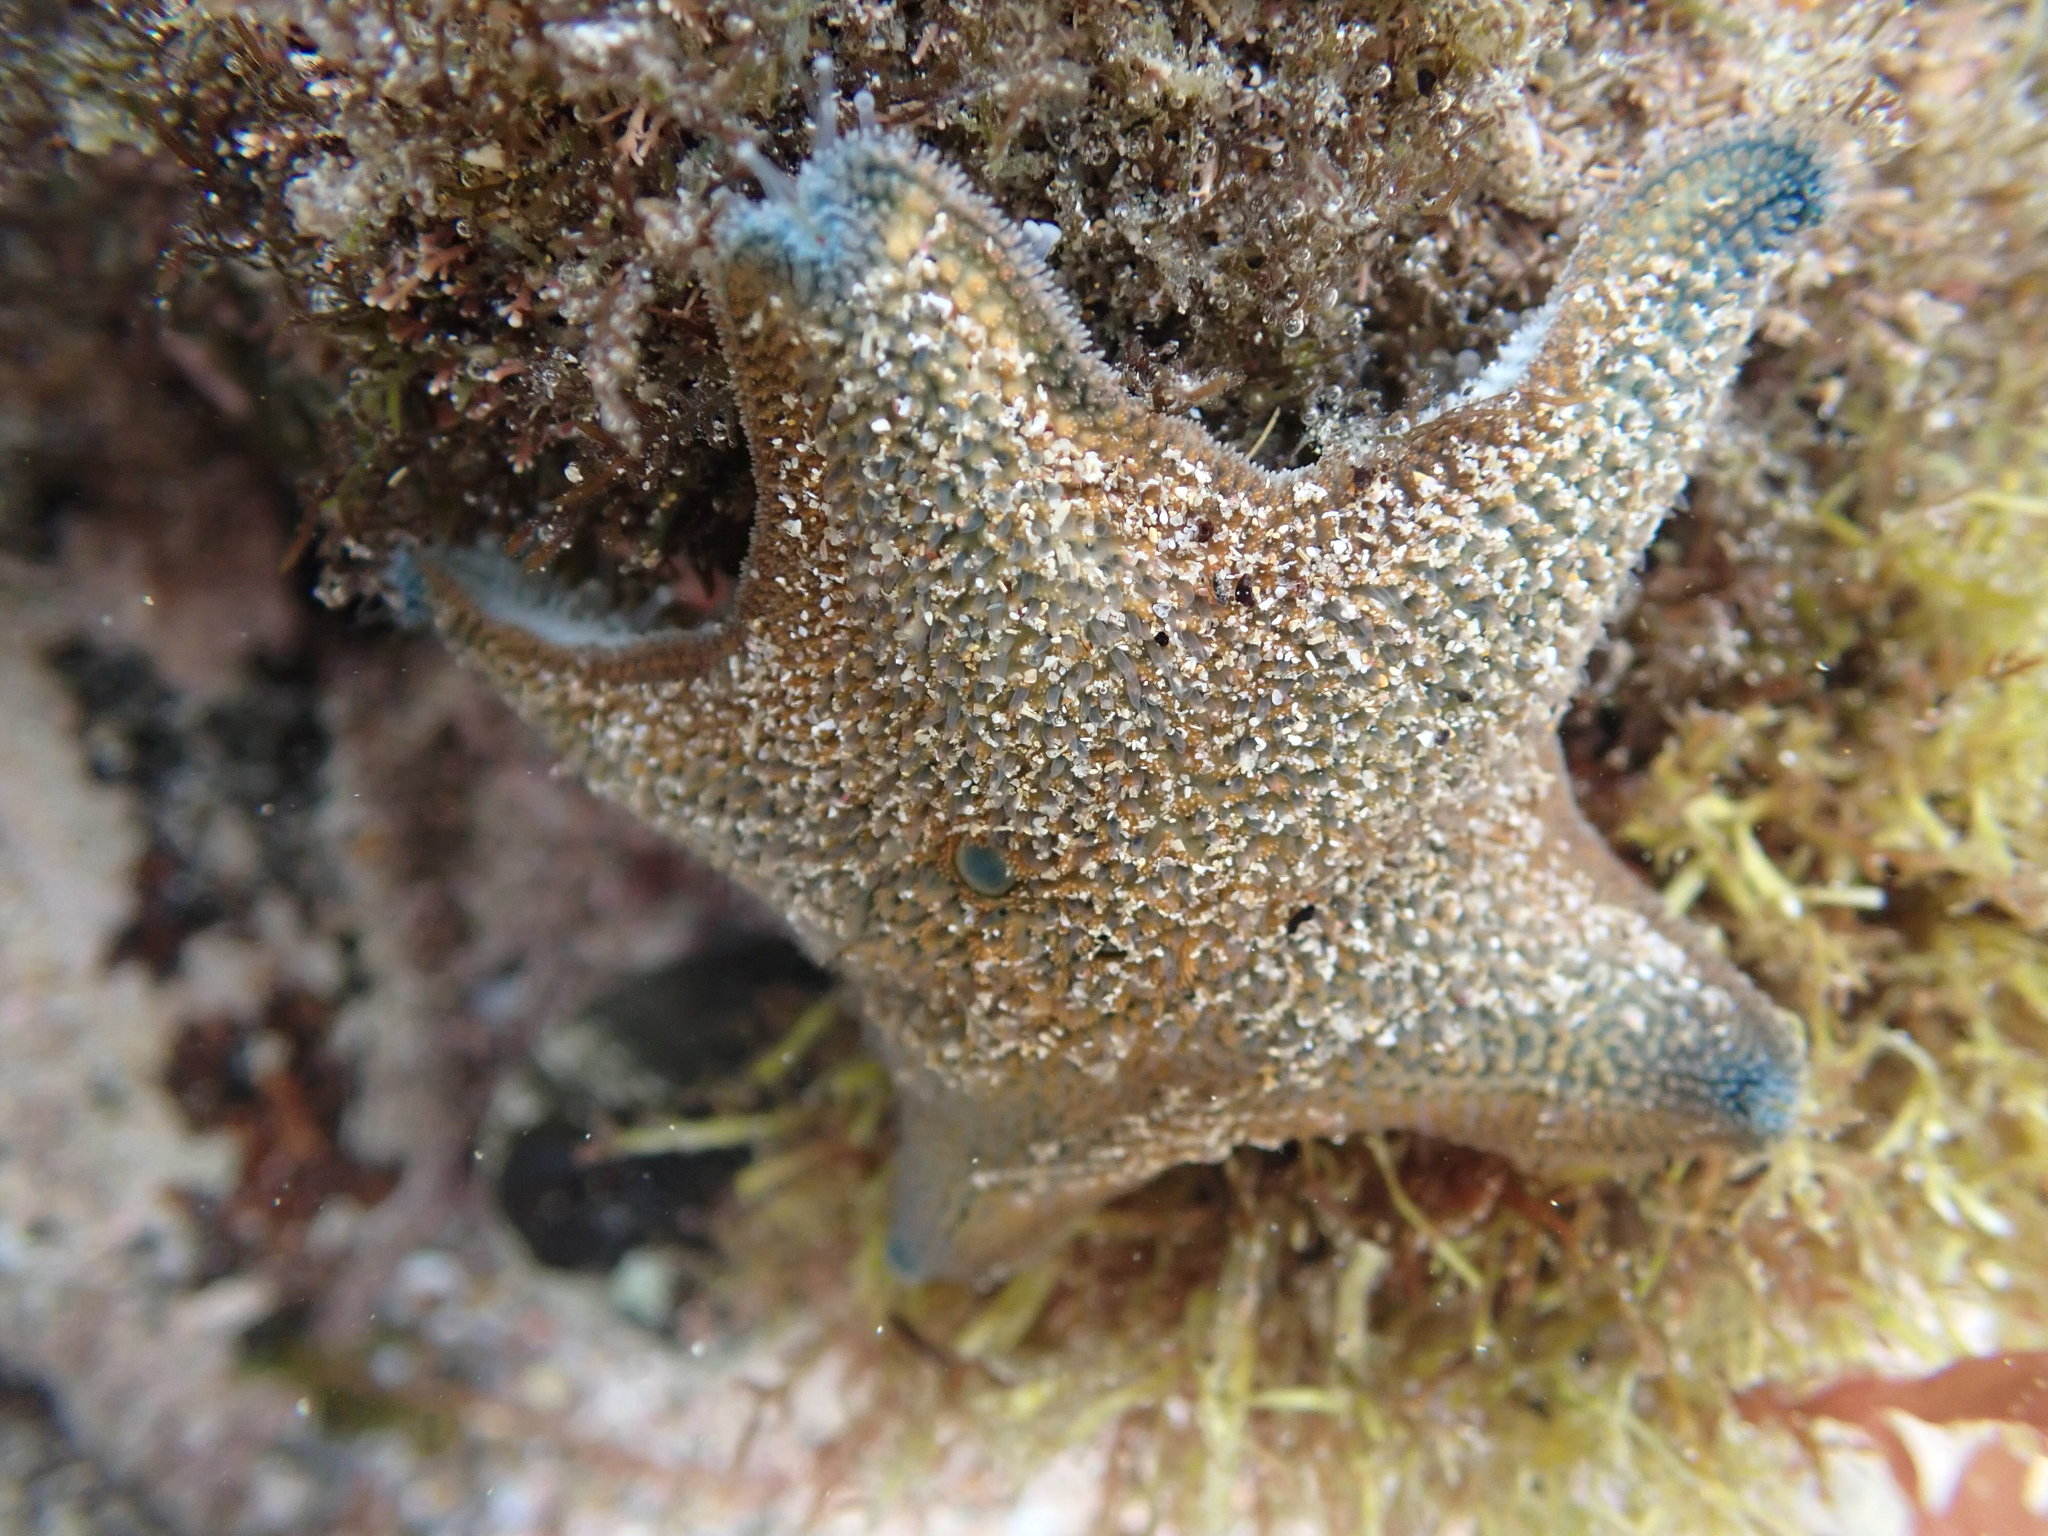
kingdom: Animalia
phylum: Echinodermata
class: Asteroidea
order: Valvatida
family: Asterinidae
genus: Patiriella
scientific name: Patiriella regularis
